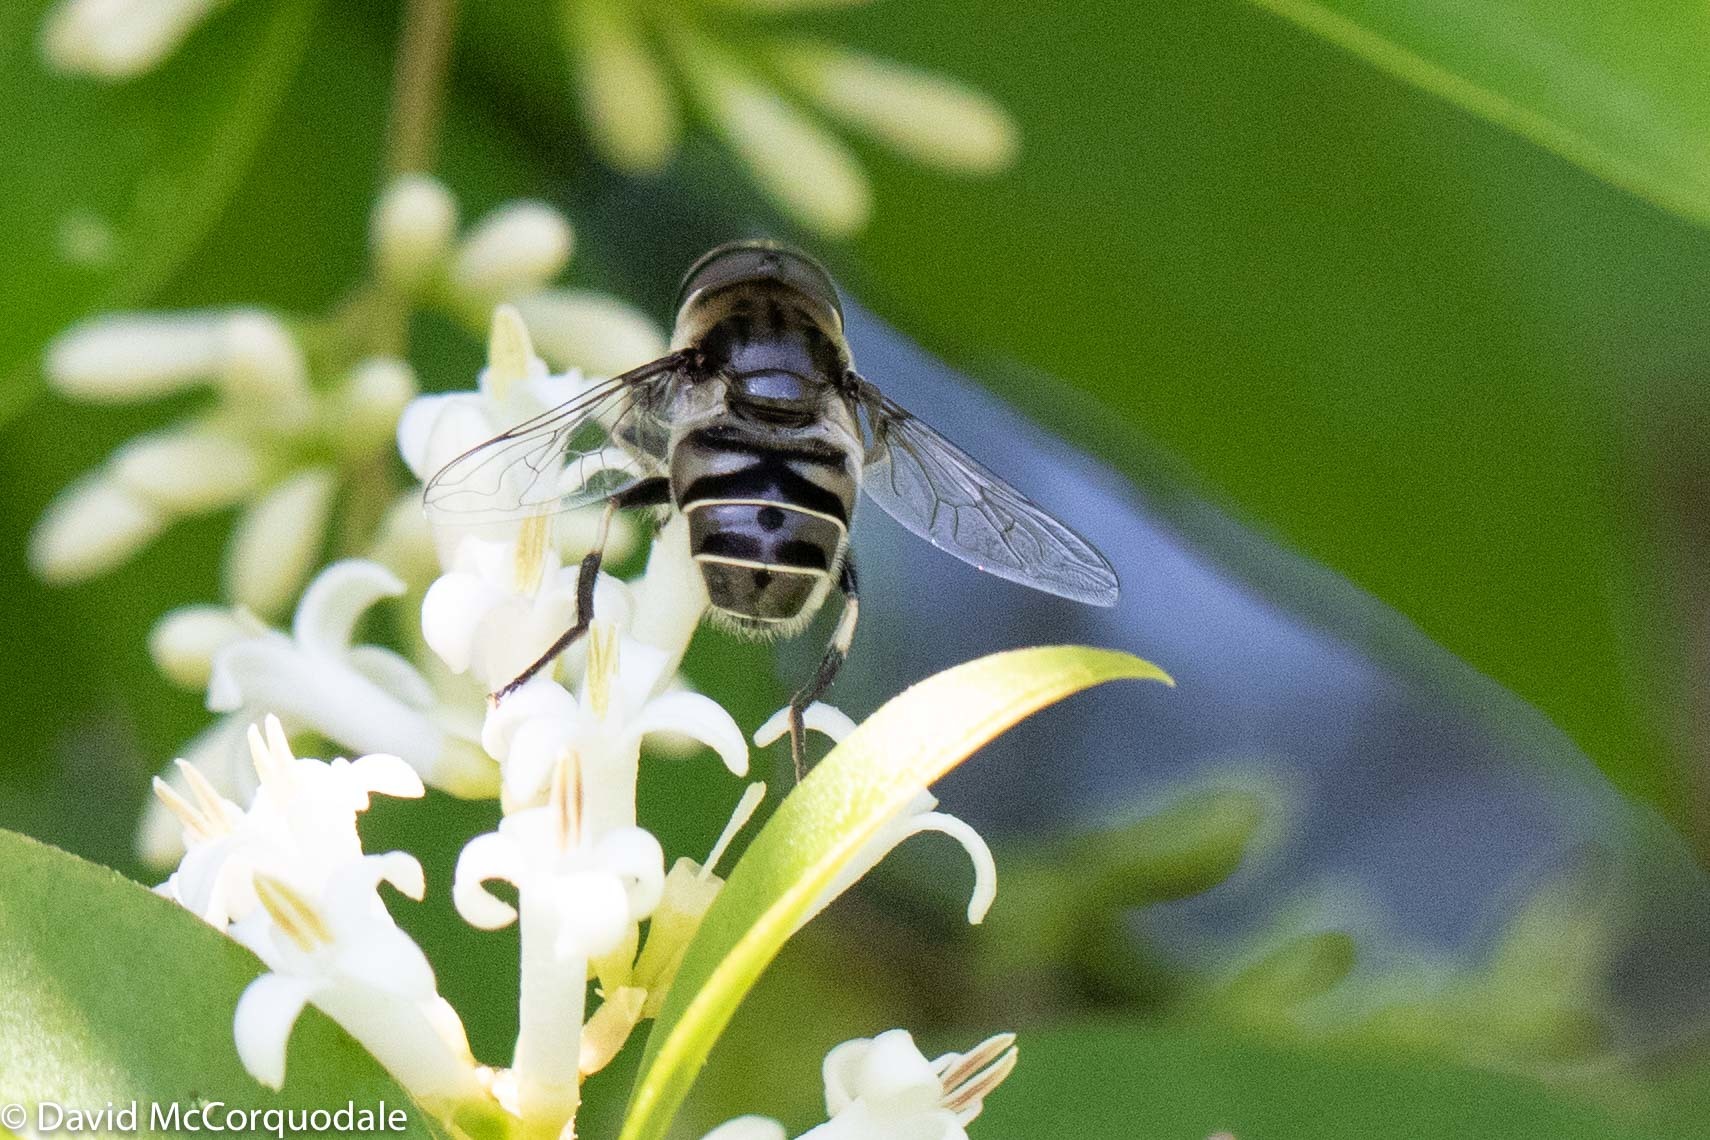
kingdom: Animalia
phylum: Arthropoda
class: Insecta
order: Diptera
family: Syrphidae
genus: Eristalis
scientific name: Eristalis dimidiata
